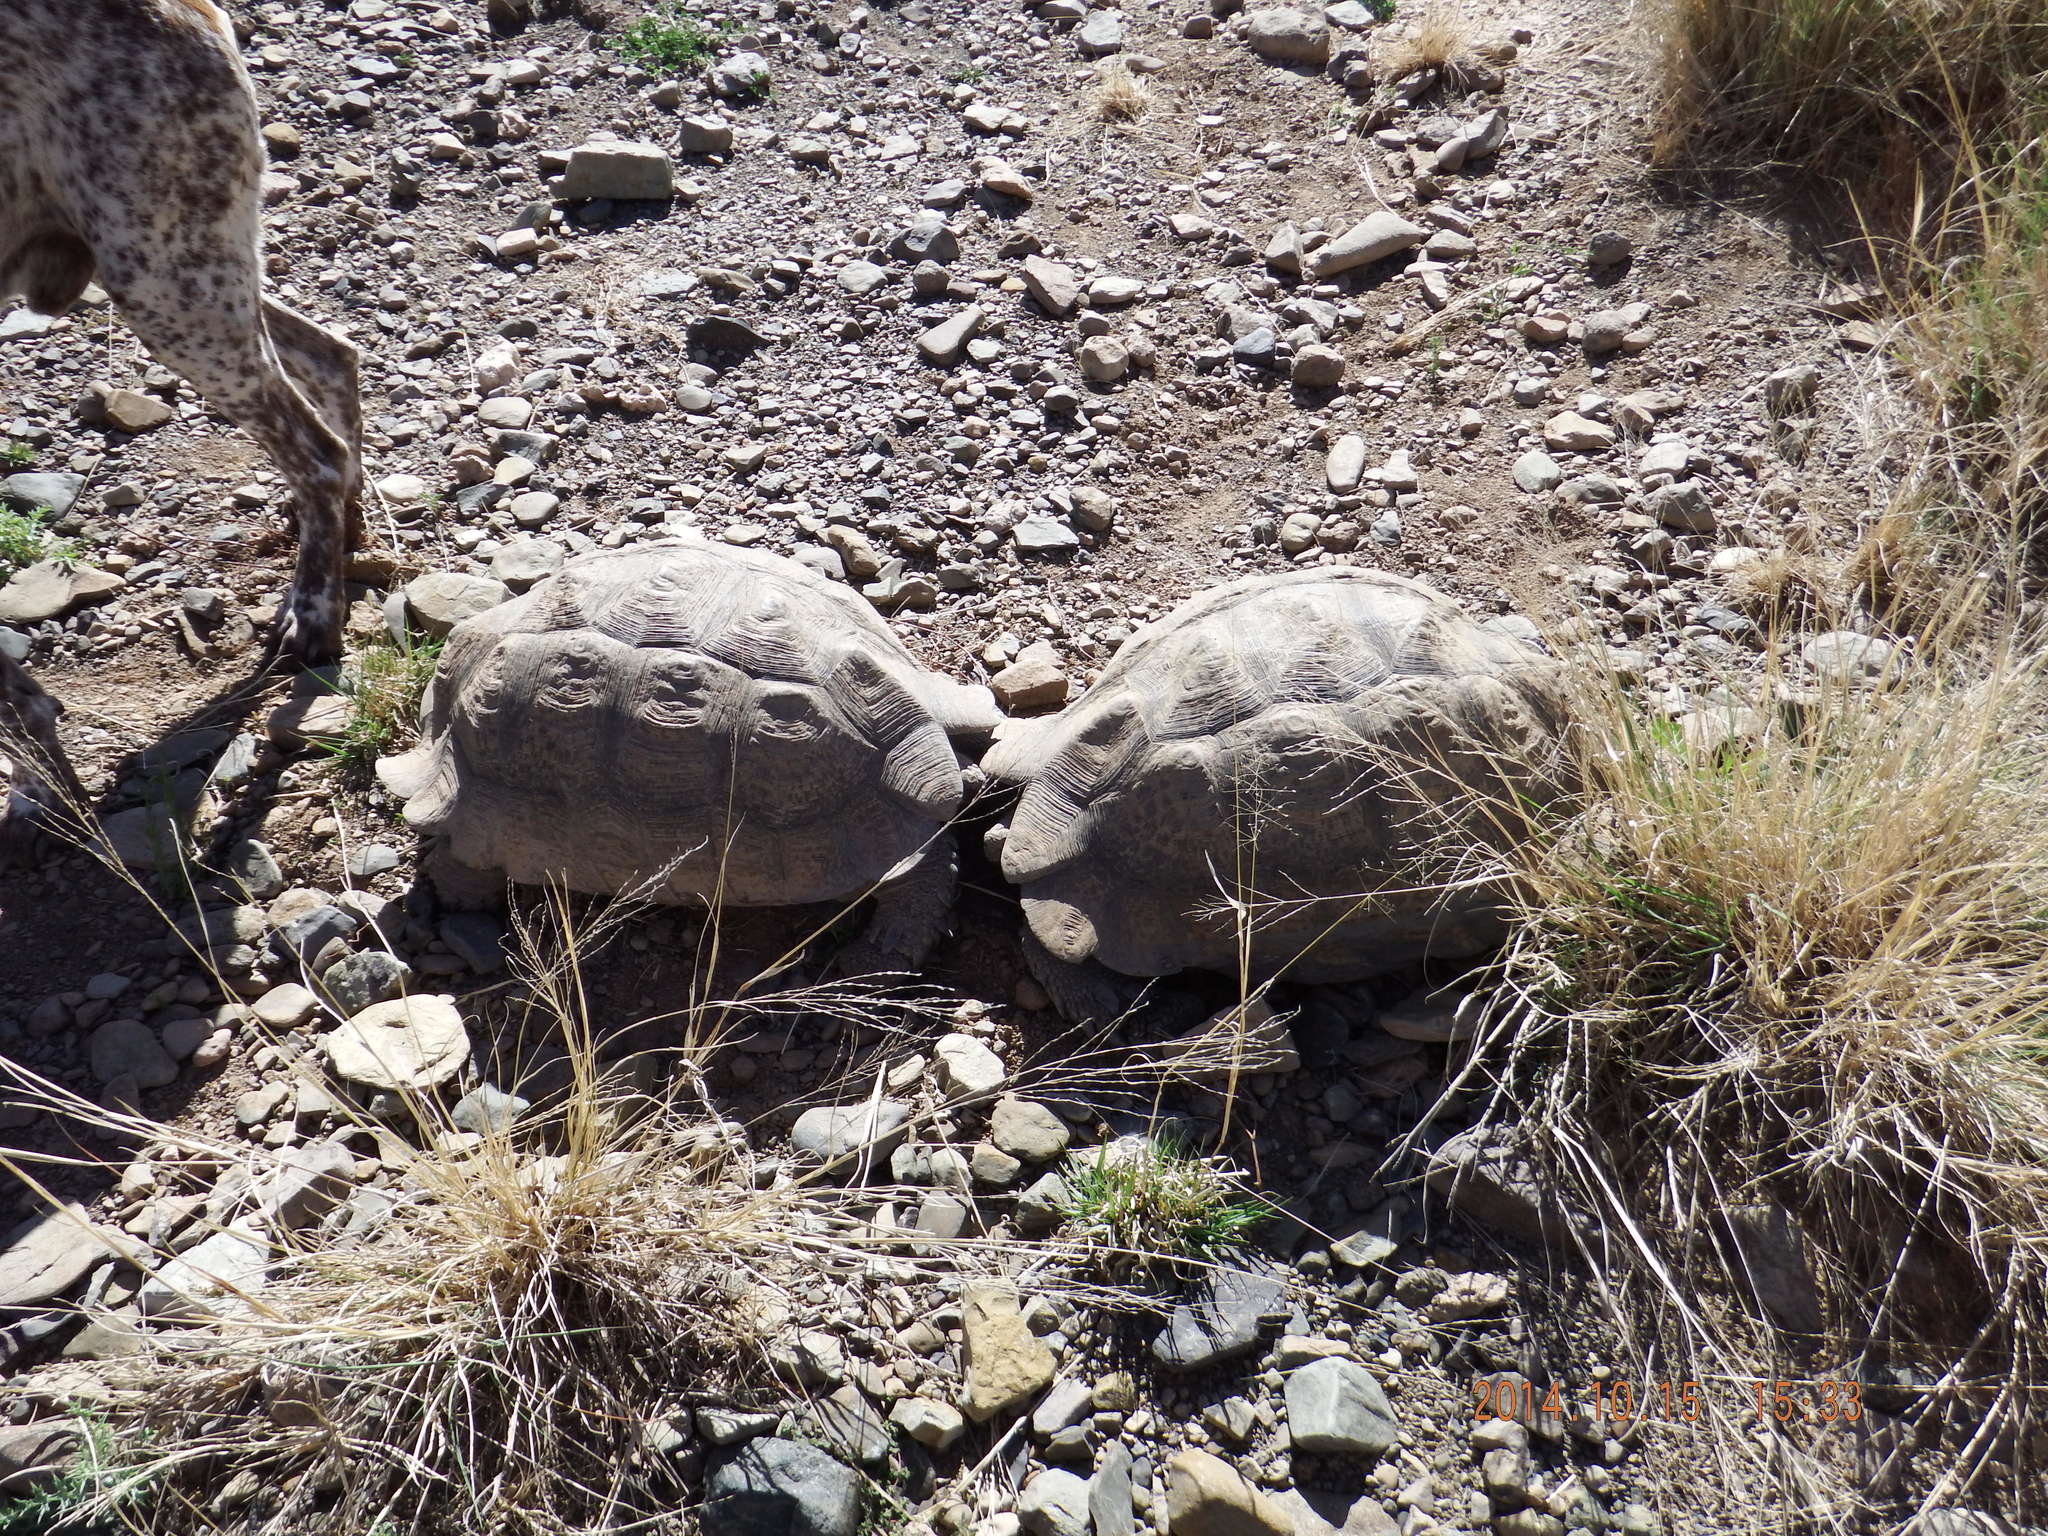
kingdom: Animalia
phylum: Chordata
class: Testudines
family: Testudinidae
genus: Stigmochelys
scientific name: Stigmochelys pardalis
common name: Leopard tortoise
